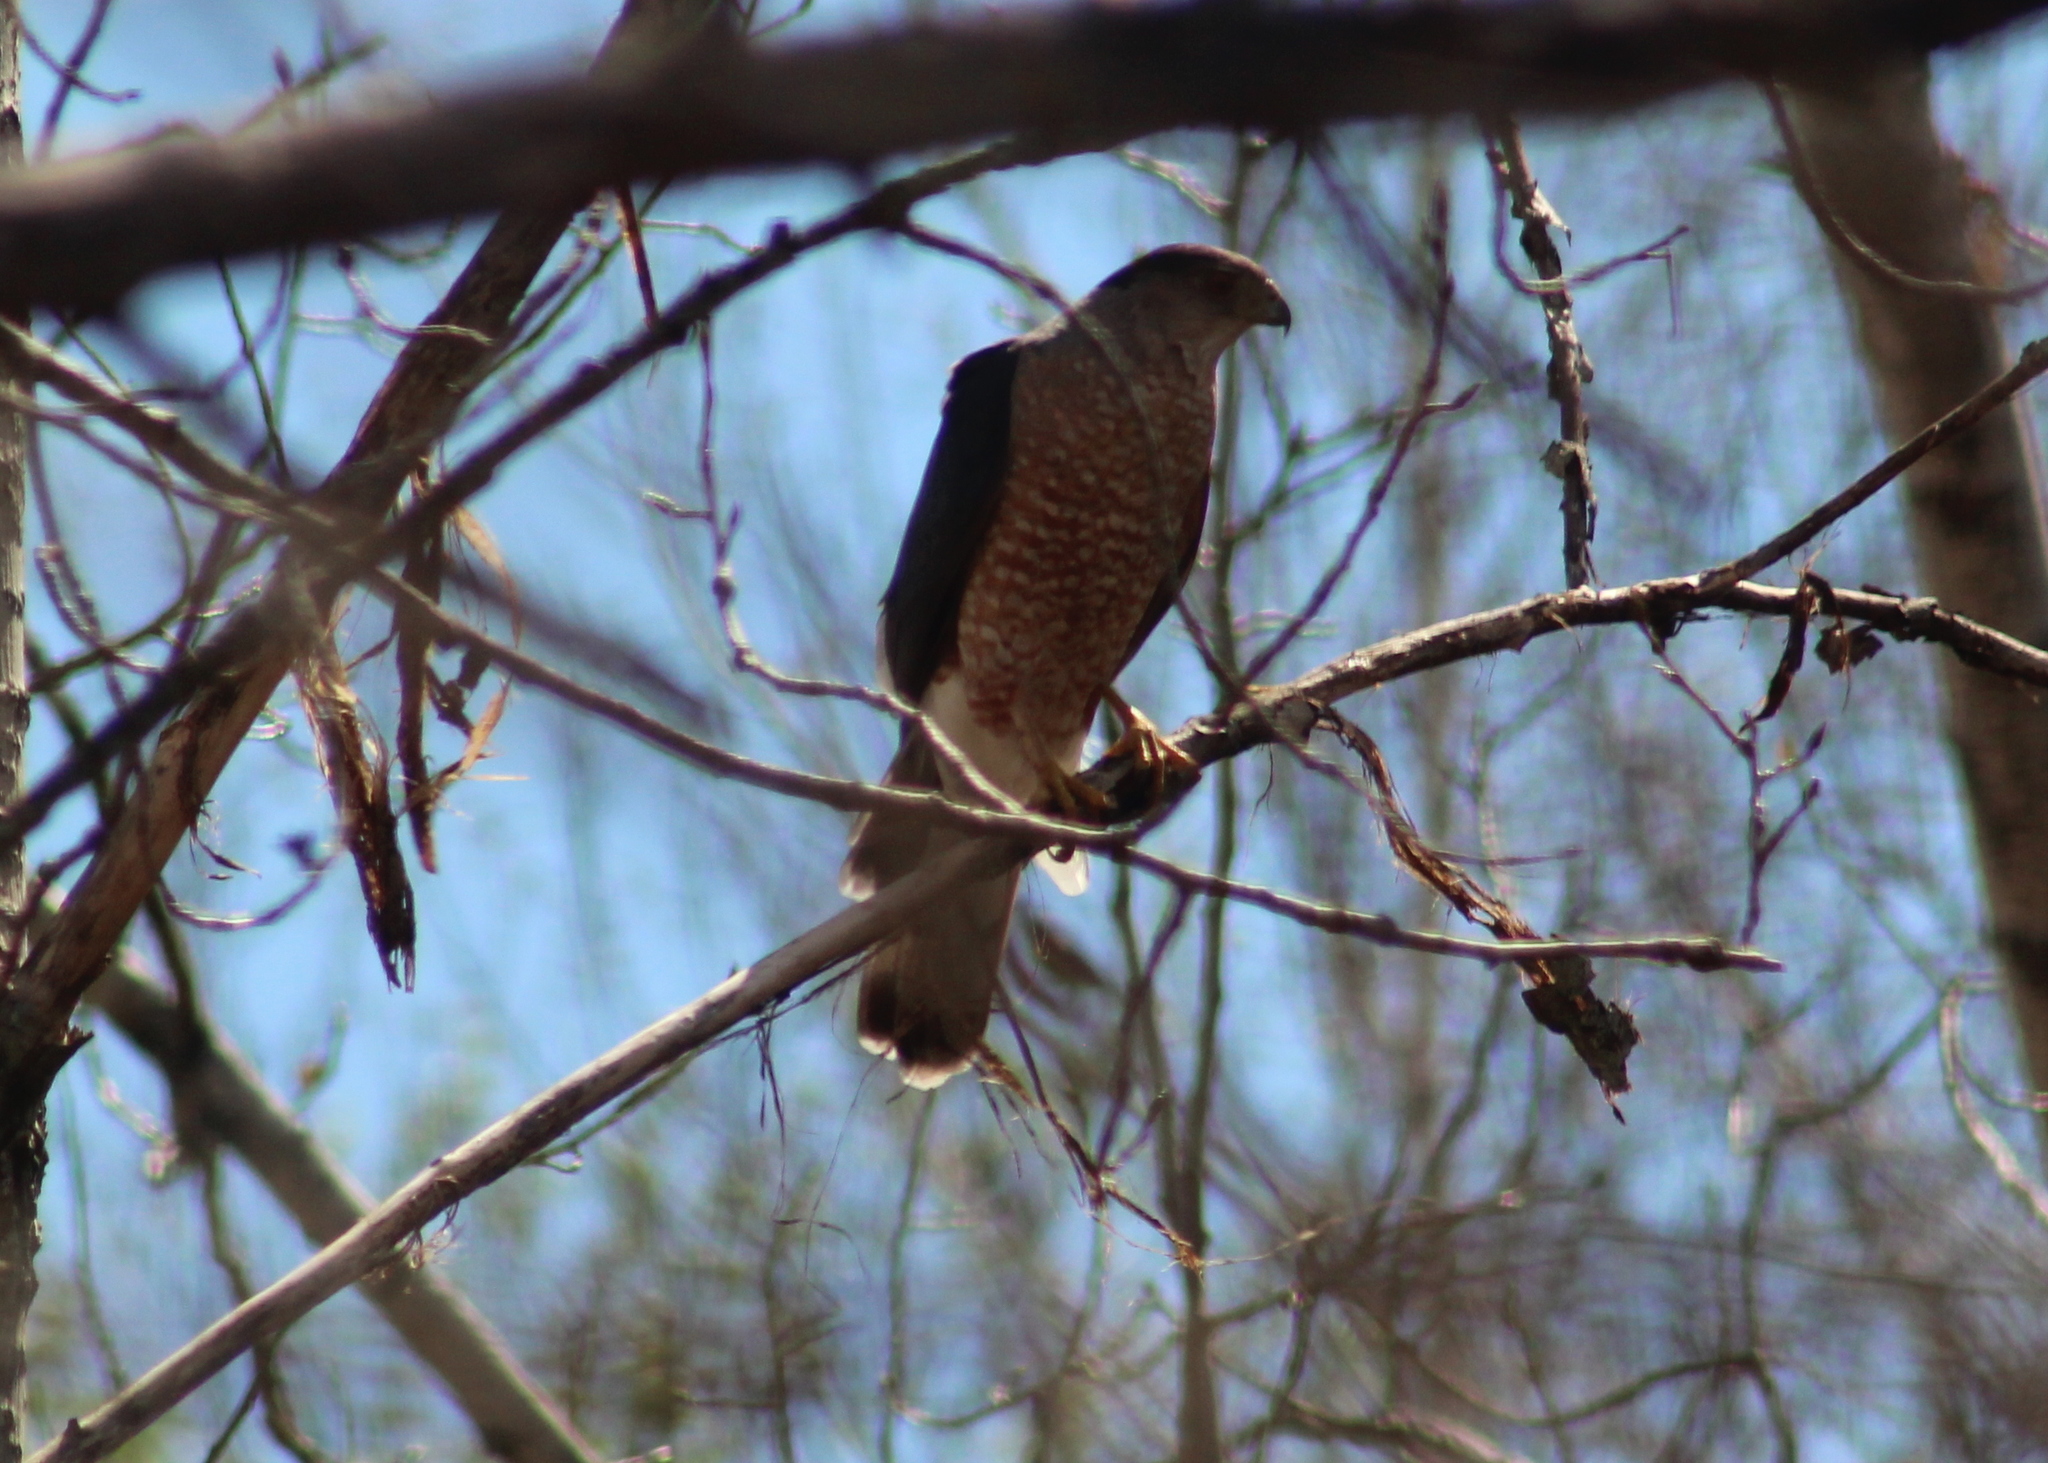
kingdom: Animalia
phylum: Chordata
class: Aves
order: Accipitriformes
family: Accipitridae
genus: Accipiter
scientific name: Accipiter cooperii
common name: Cooper's hawk
